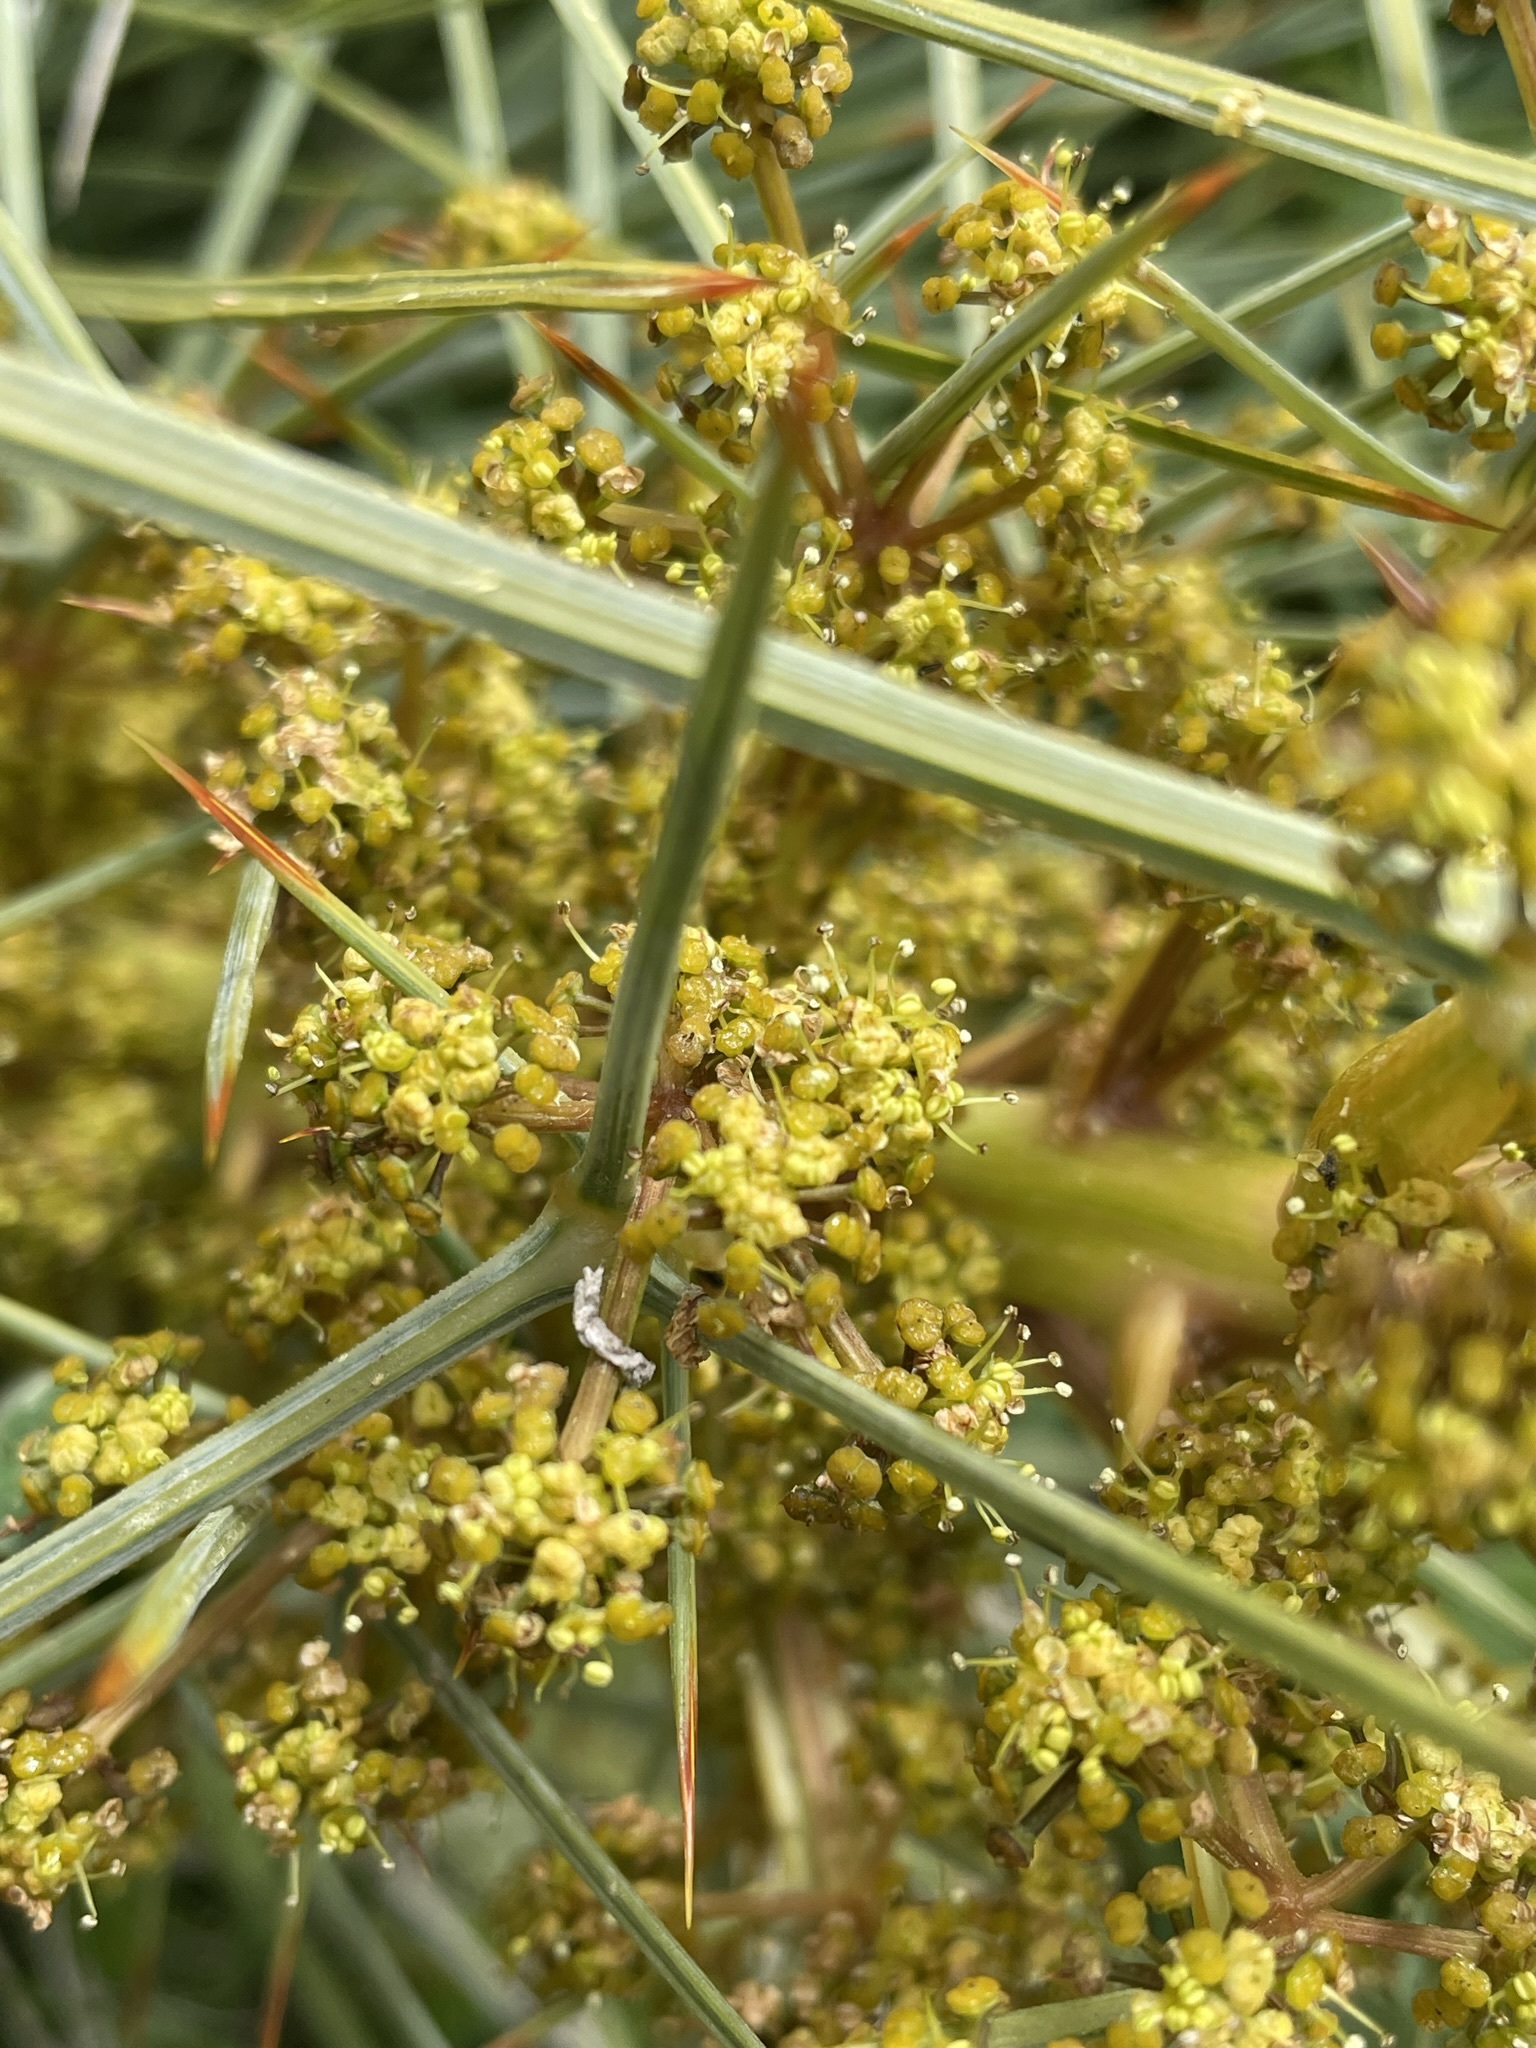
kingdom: Plantae
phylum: Tracheophyta
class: Magnoliopsida
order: Apiales
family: Apiaceae
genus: Aciphylla
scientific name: Aciphylla squarrosa
